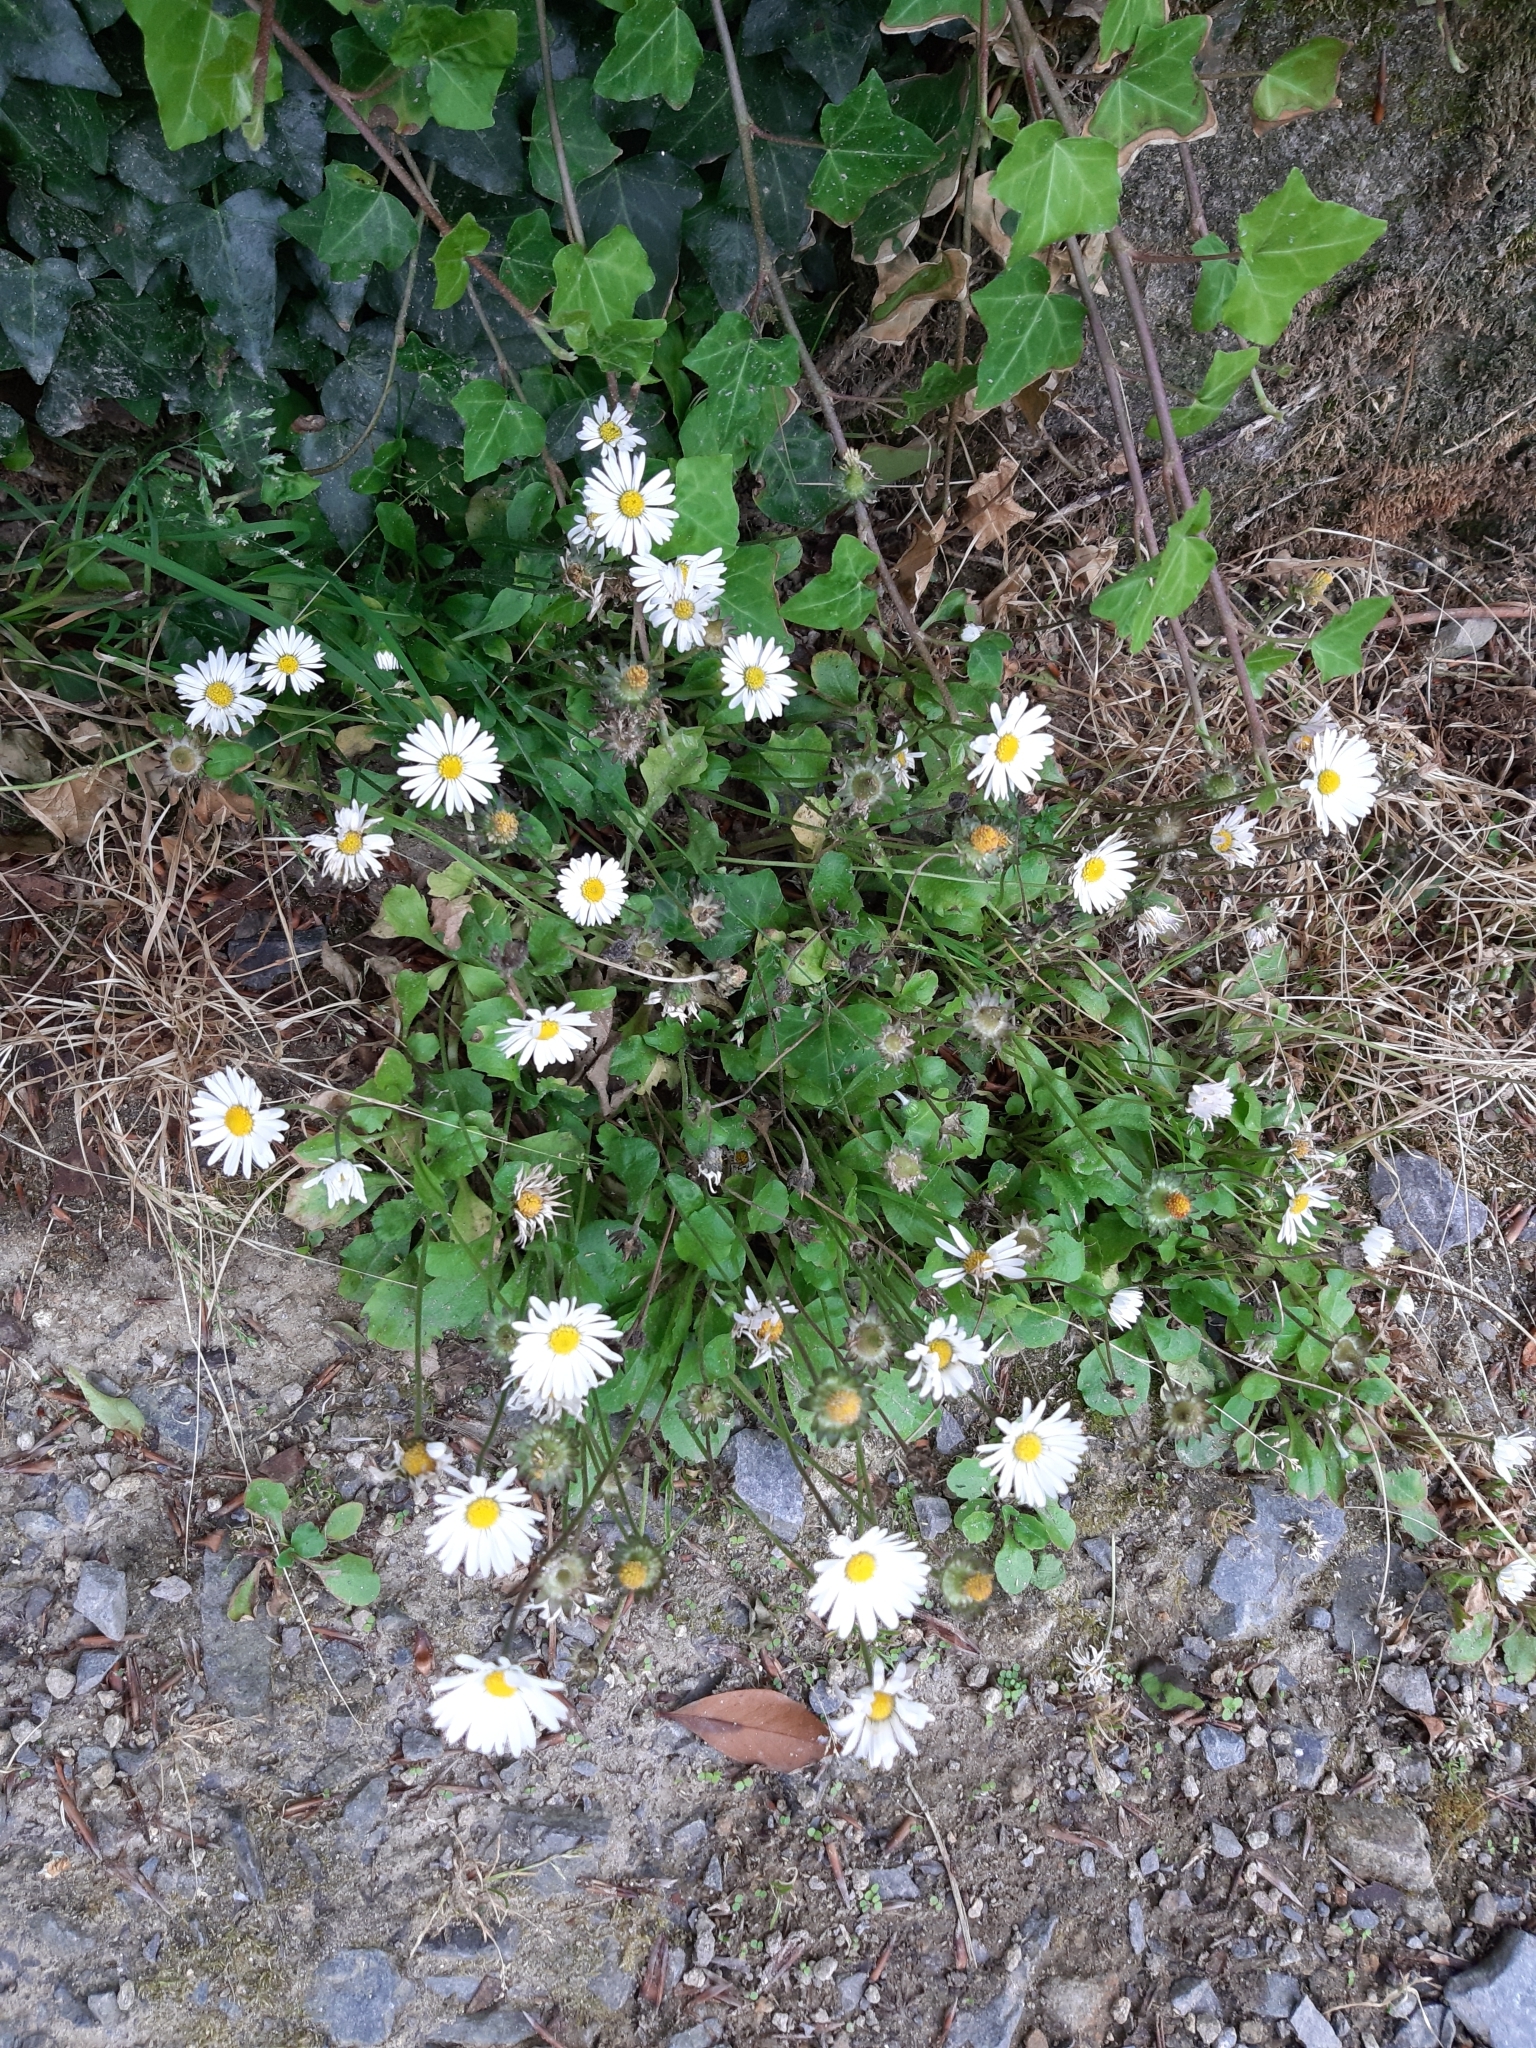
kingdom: Plantae
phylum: Tracheophyta
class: Magnoliopsida
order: Asterales
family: Asteraceae
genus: Bellis
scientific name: Bellis perennis
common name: Lawndaisy
